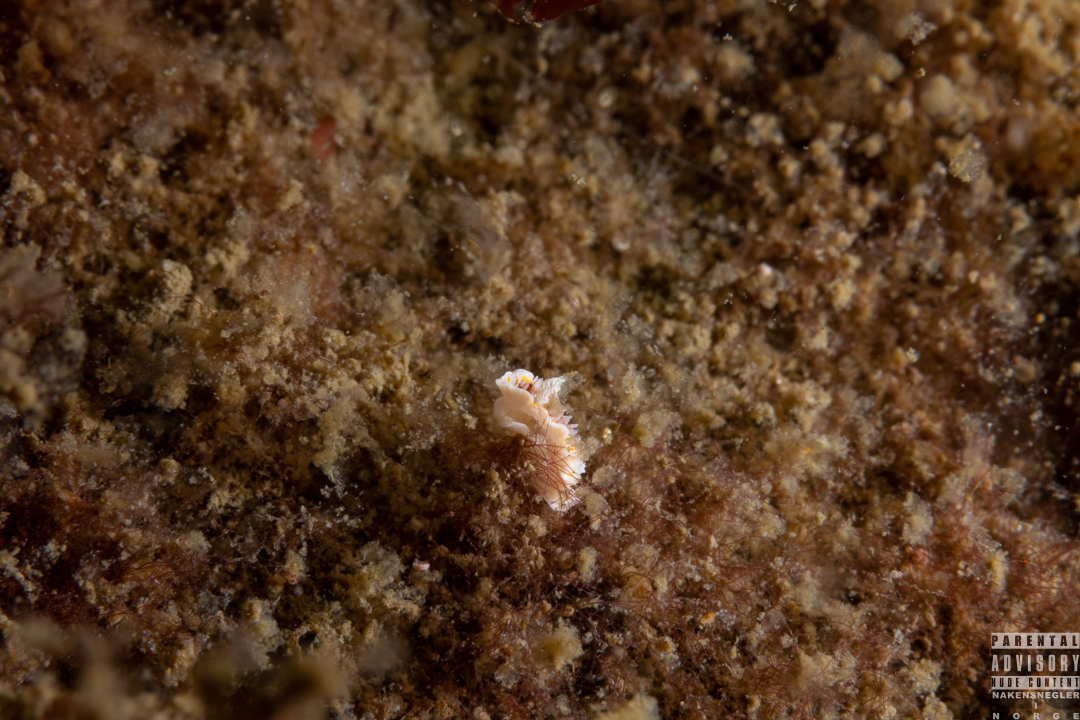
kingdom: Animalia
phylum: Mollusca
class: Gastropoda
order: Nudibranchia
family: Calycidorididae
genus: Diaphorodoris
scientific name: Diaphorodoris luteocincta
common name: Fried egg nudibranch
